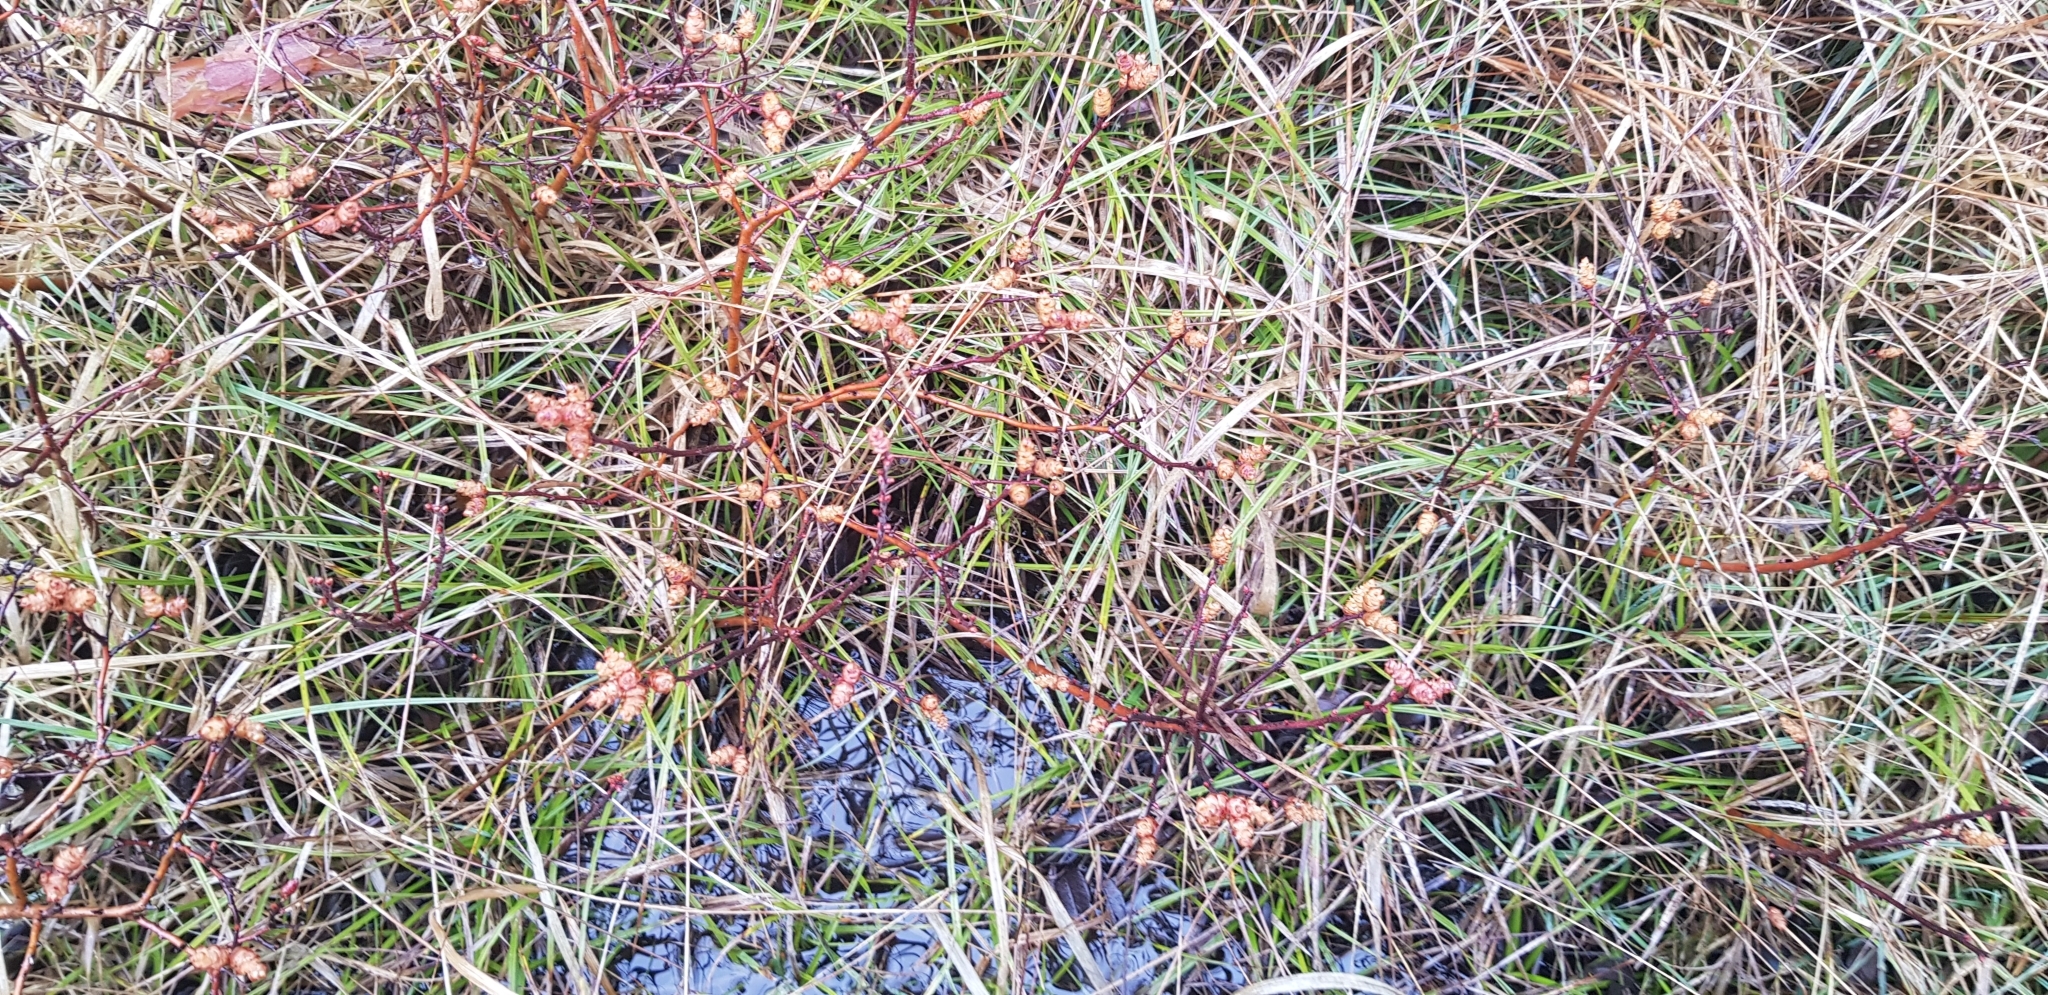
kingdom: Plantae
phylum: Tracheophyta
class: Magnoliopsida
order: Fagales
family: Myricaceae
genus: Myrica
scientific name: Myrica gale
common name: Sweet gale
